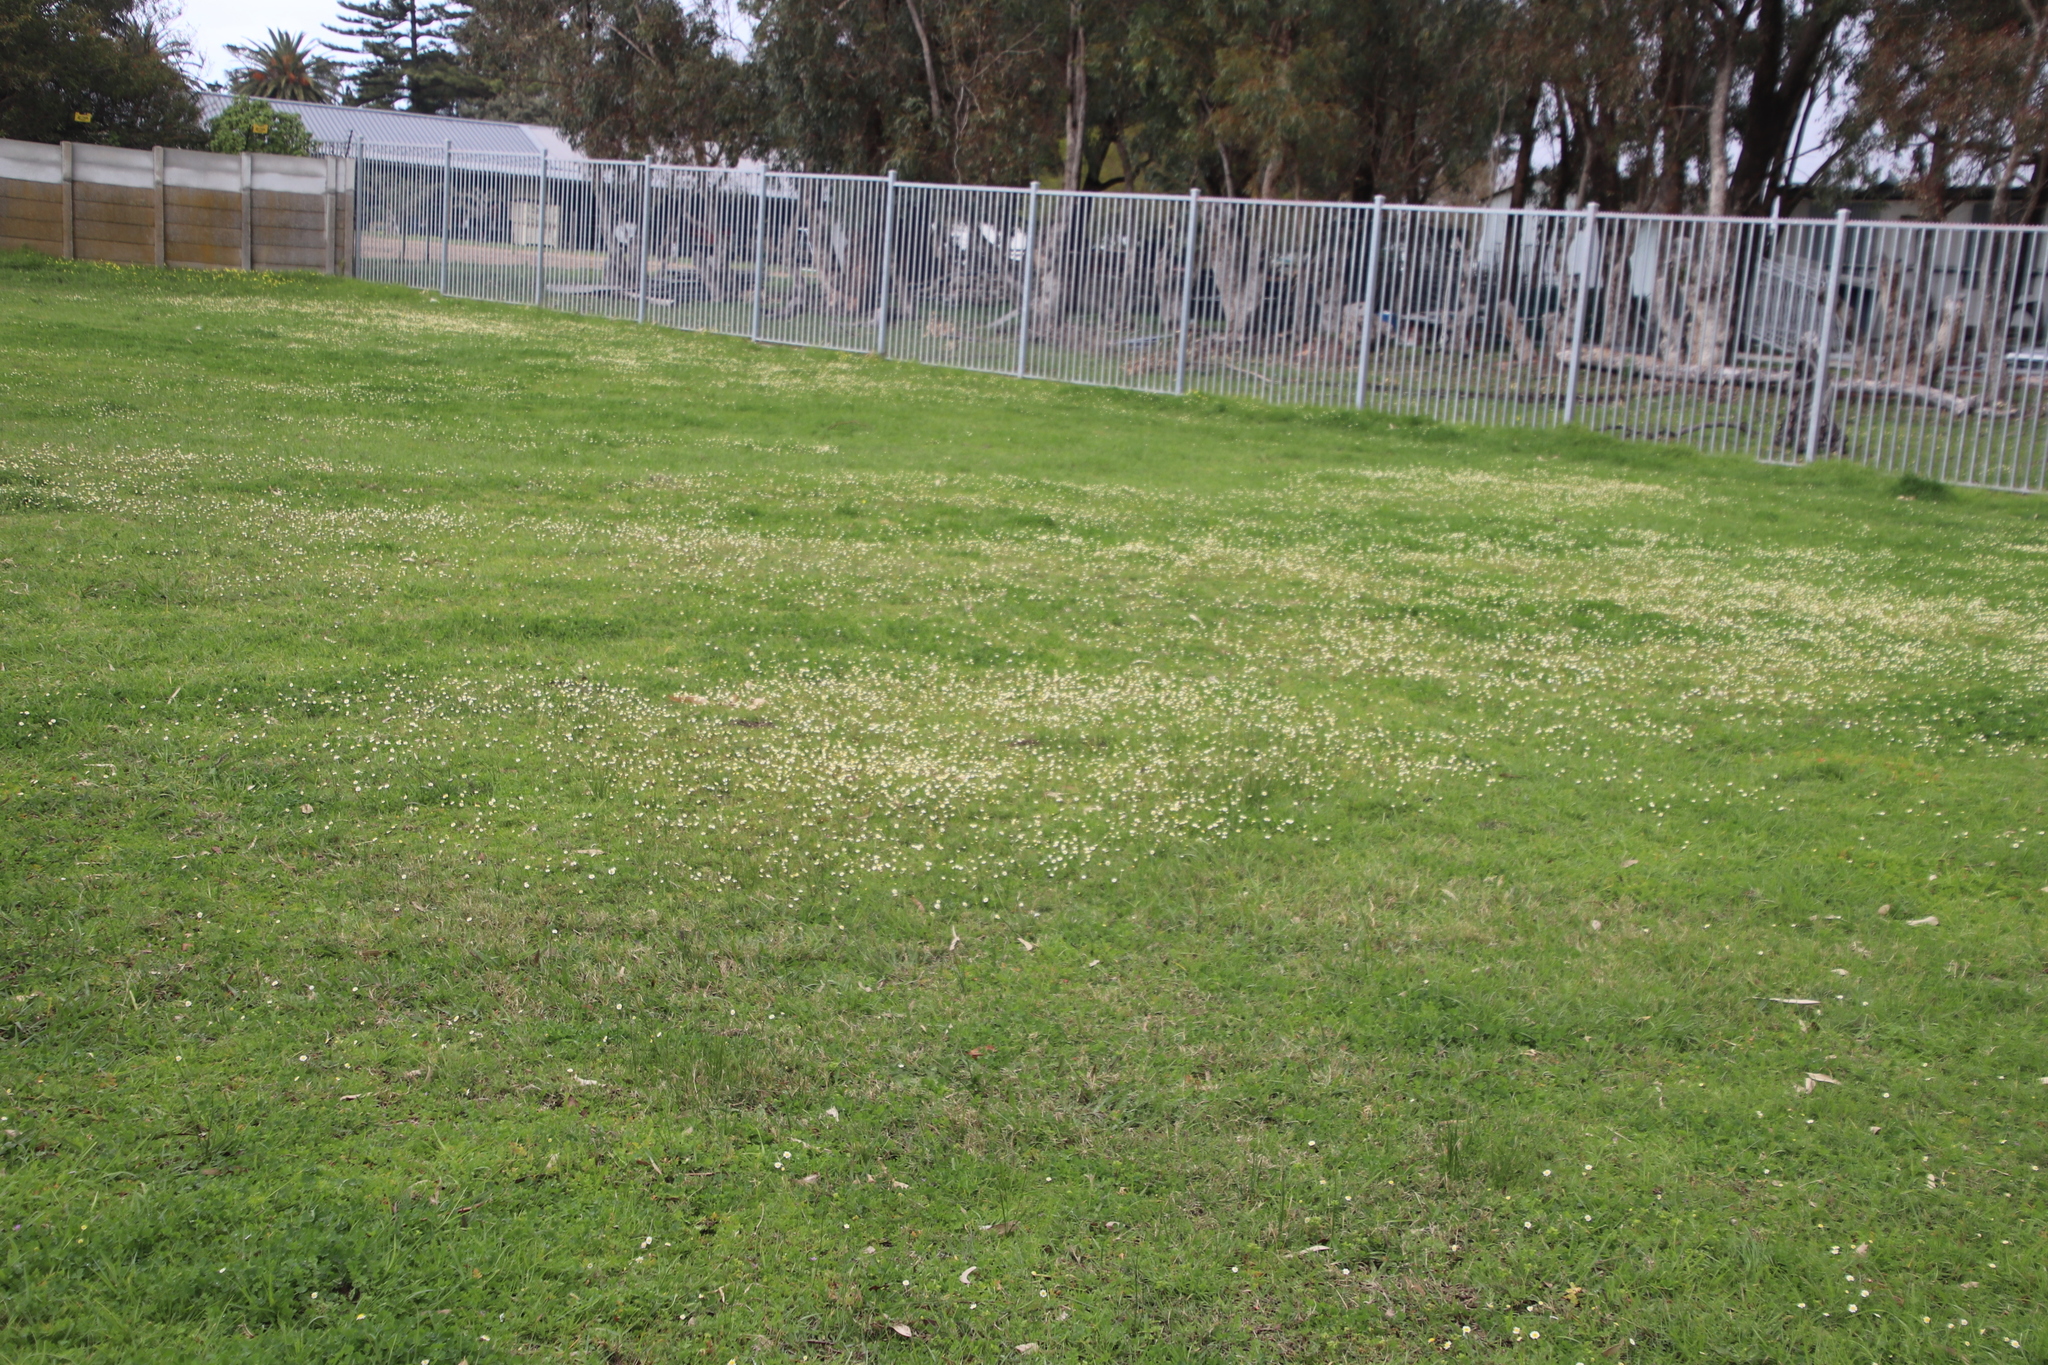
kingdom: Plantae
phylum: Tracheophyta
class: Magnoliopsida
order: Asterales
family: Asteraceae
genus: Cotula
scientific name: Cotula turbinata
